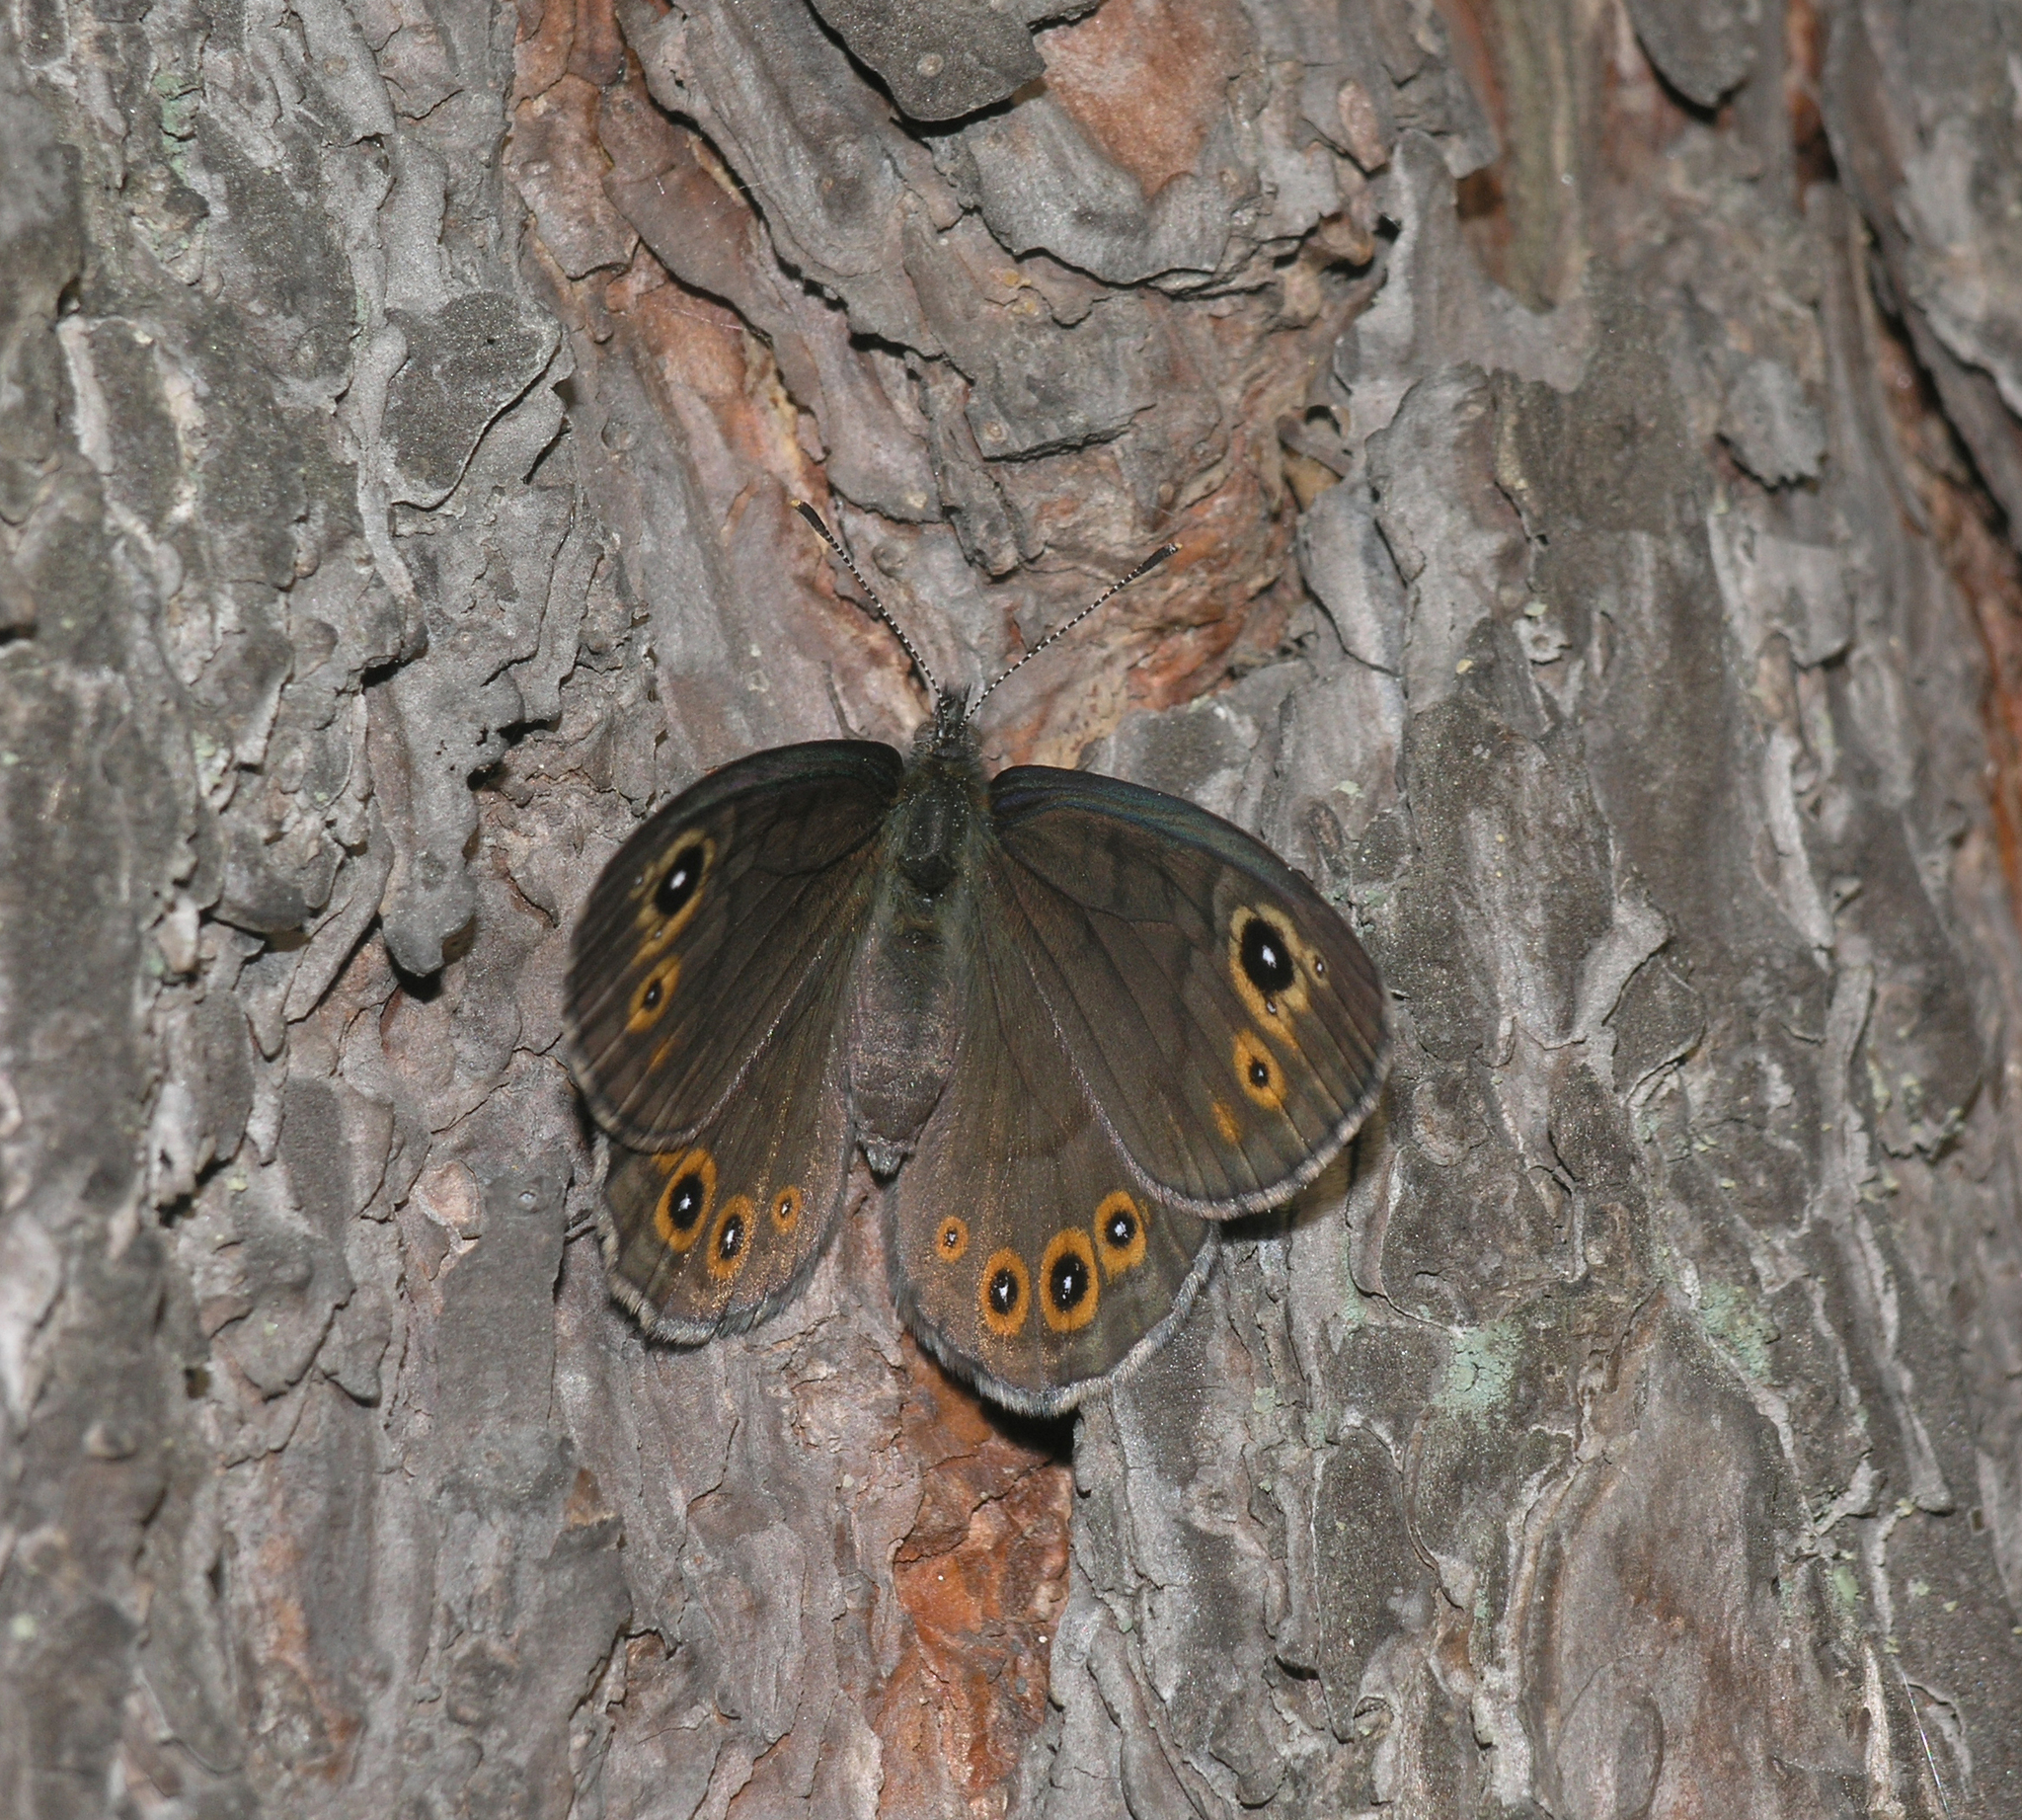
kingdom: Animalia
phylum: Arthropoda
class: Insecta
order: Lepidoptera
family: Nymphalidae
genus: Pararge
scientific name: Pararge petropolitana
